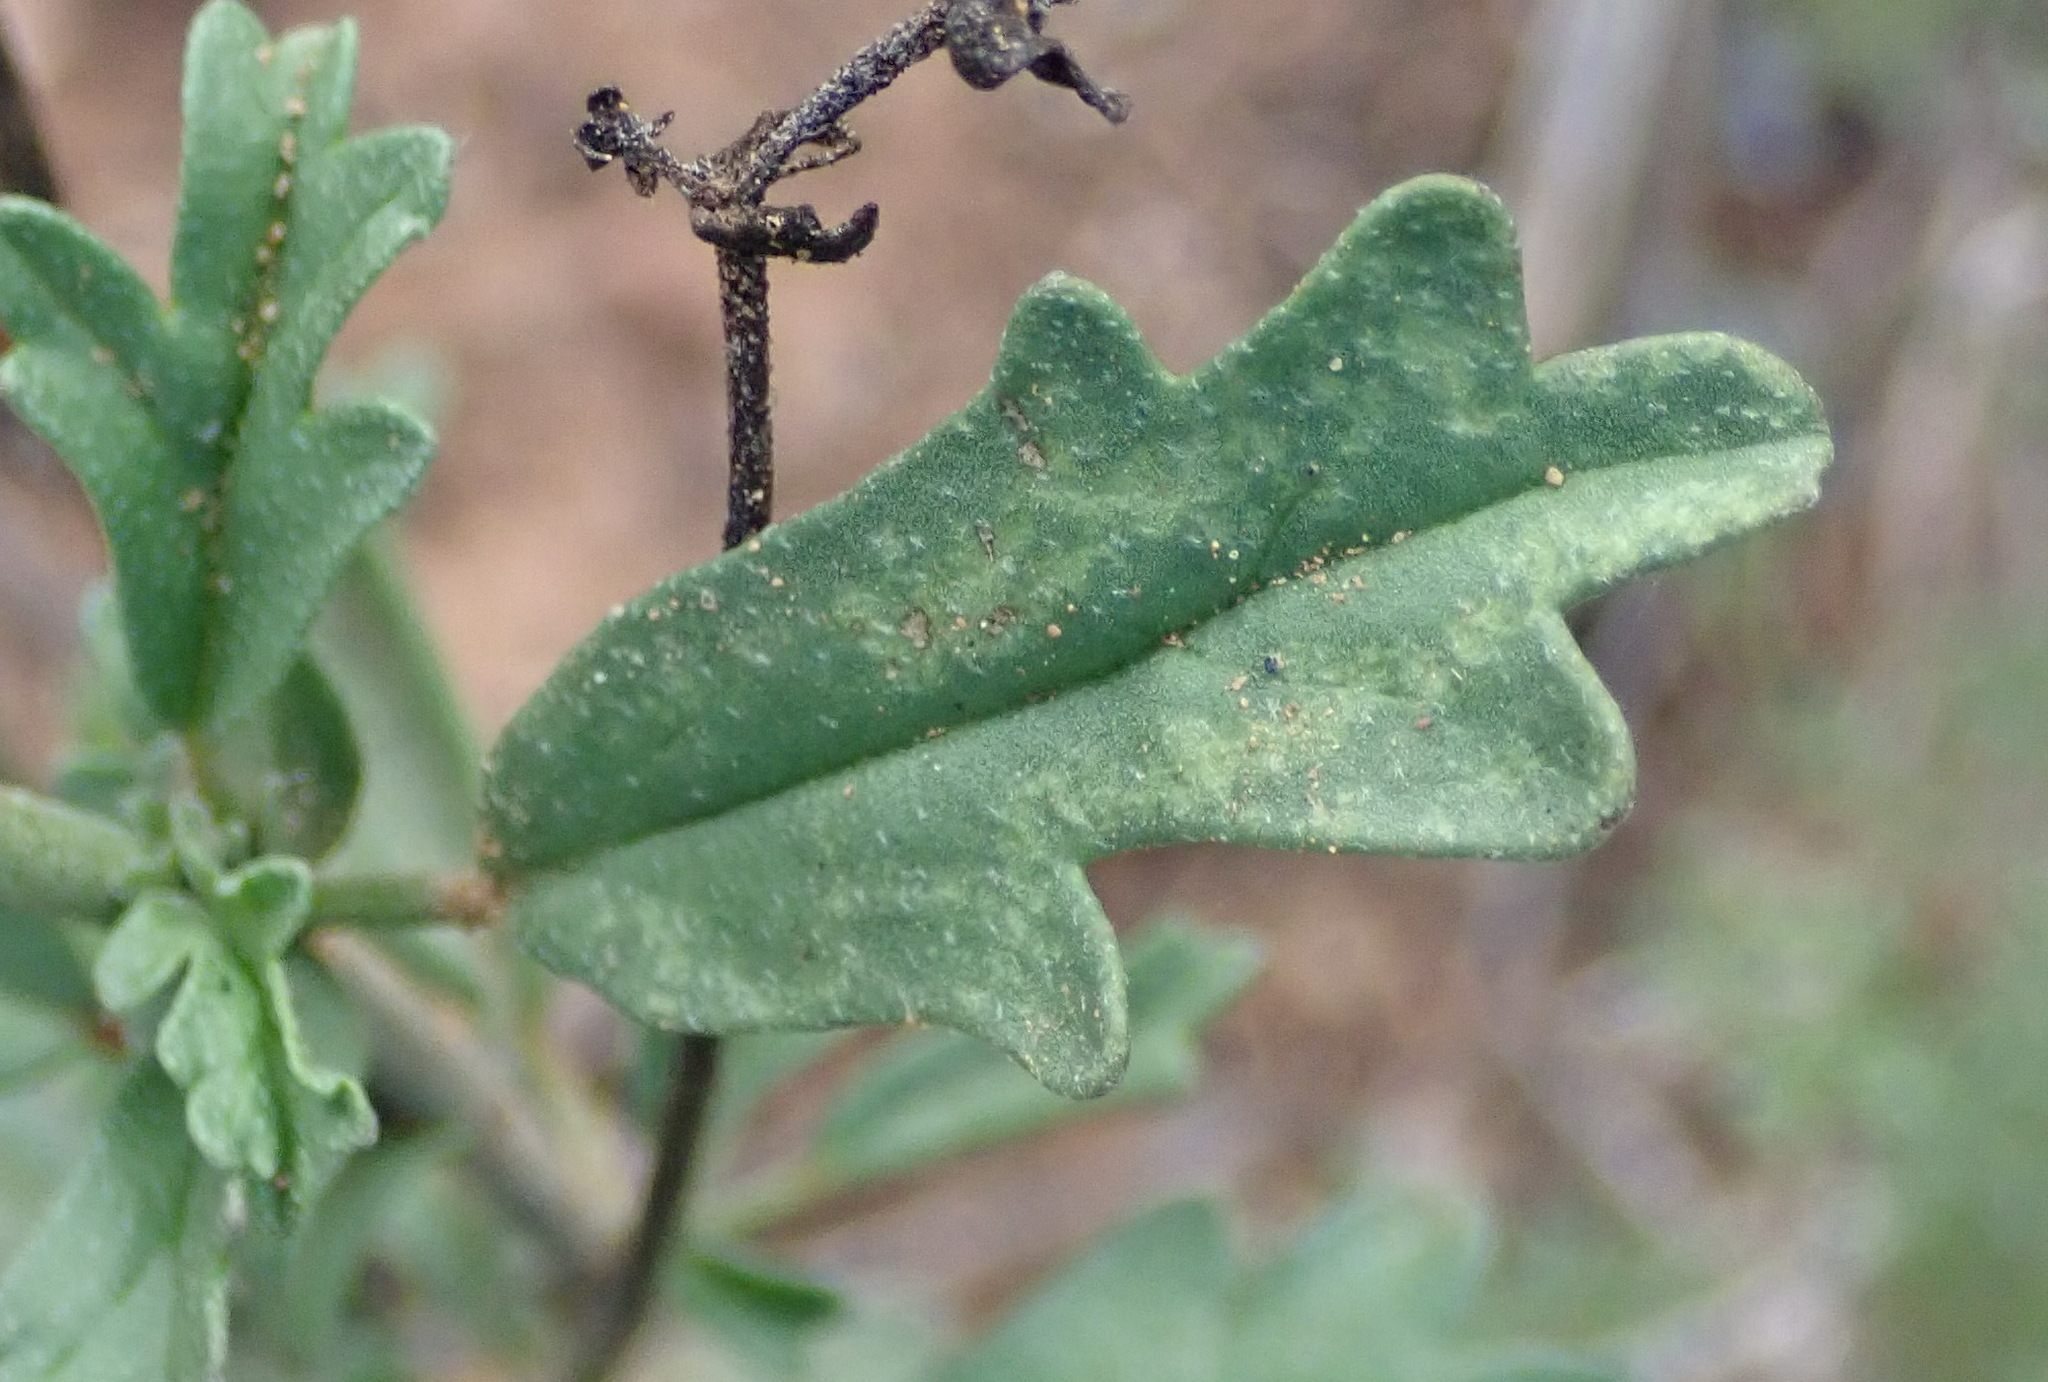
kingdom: Plantae
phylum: Tracheophyta
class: Magnoliopsida
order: Malvales
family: Malvaceae
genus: Hermannia
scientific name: Hermannia pulverata
